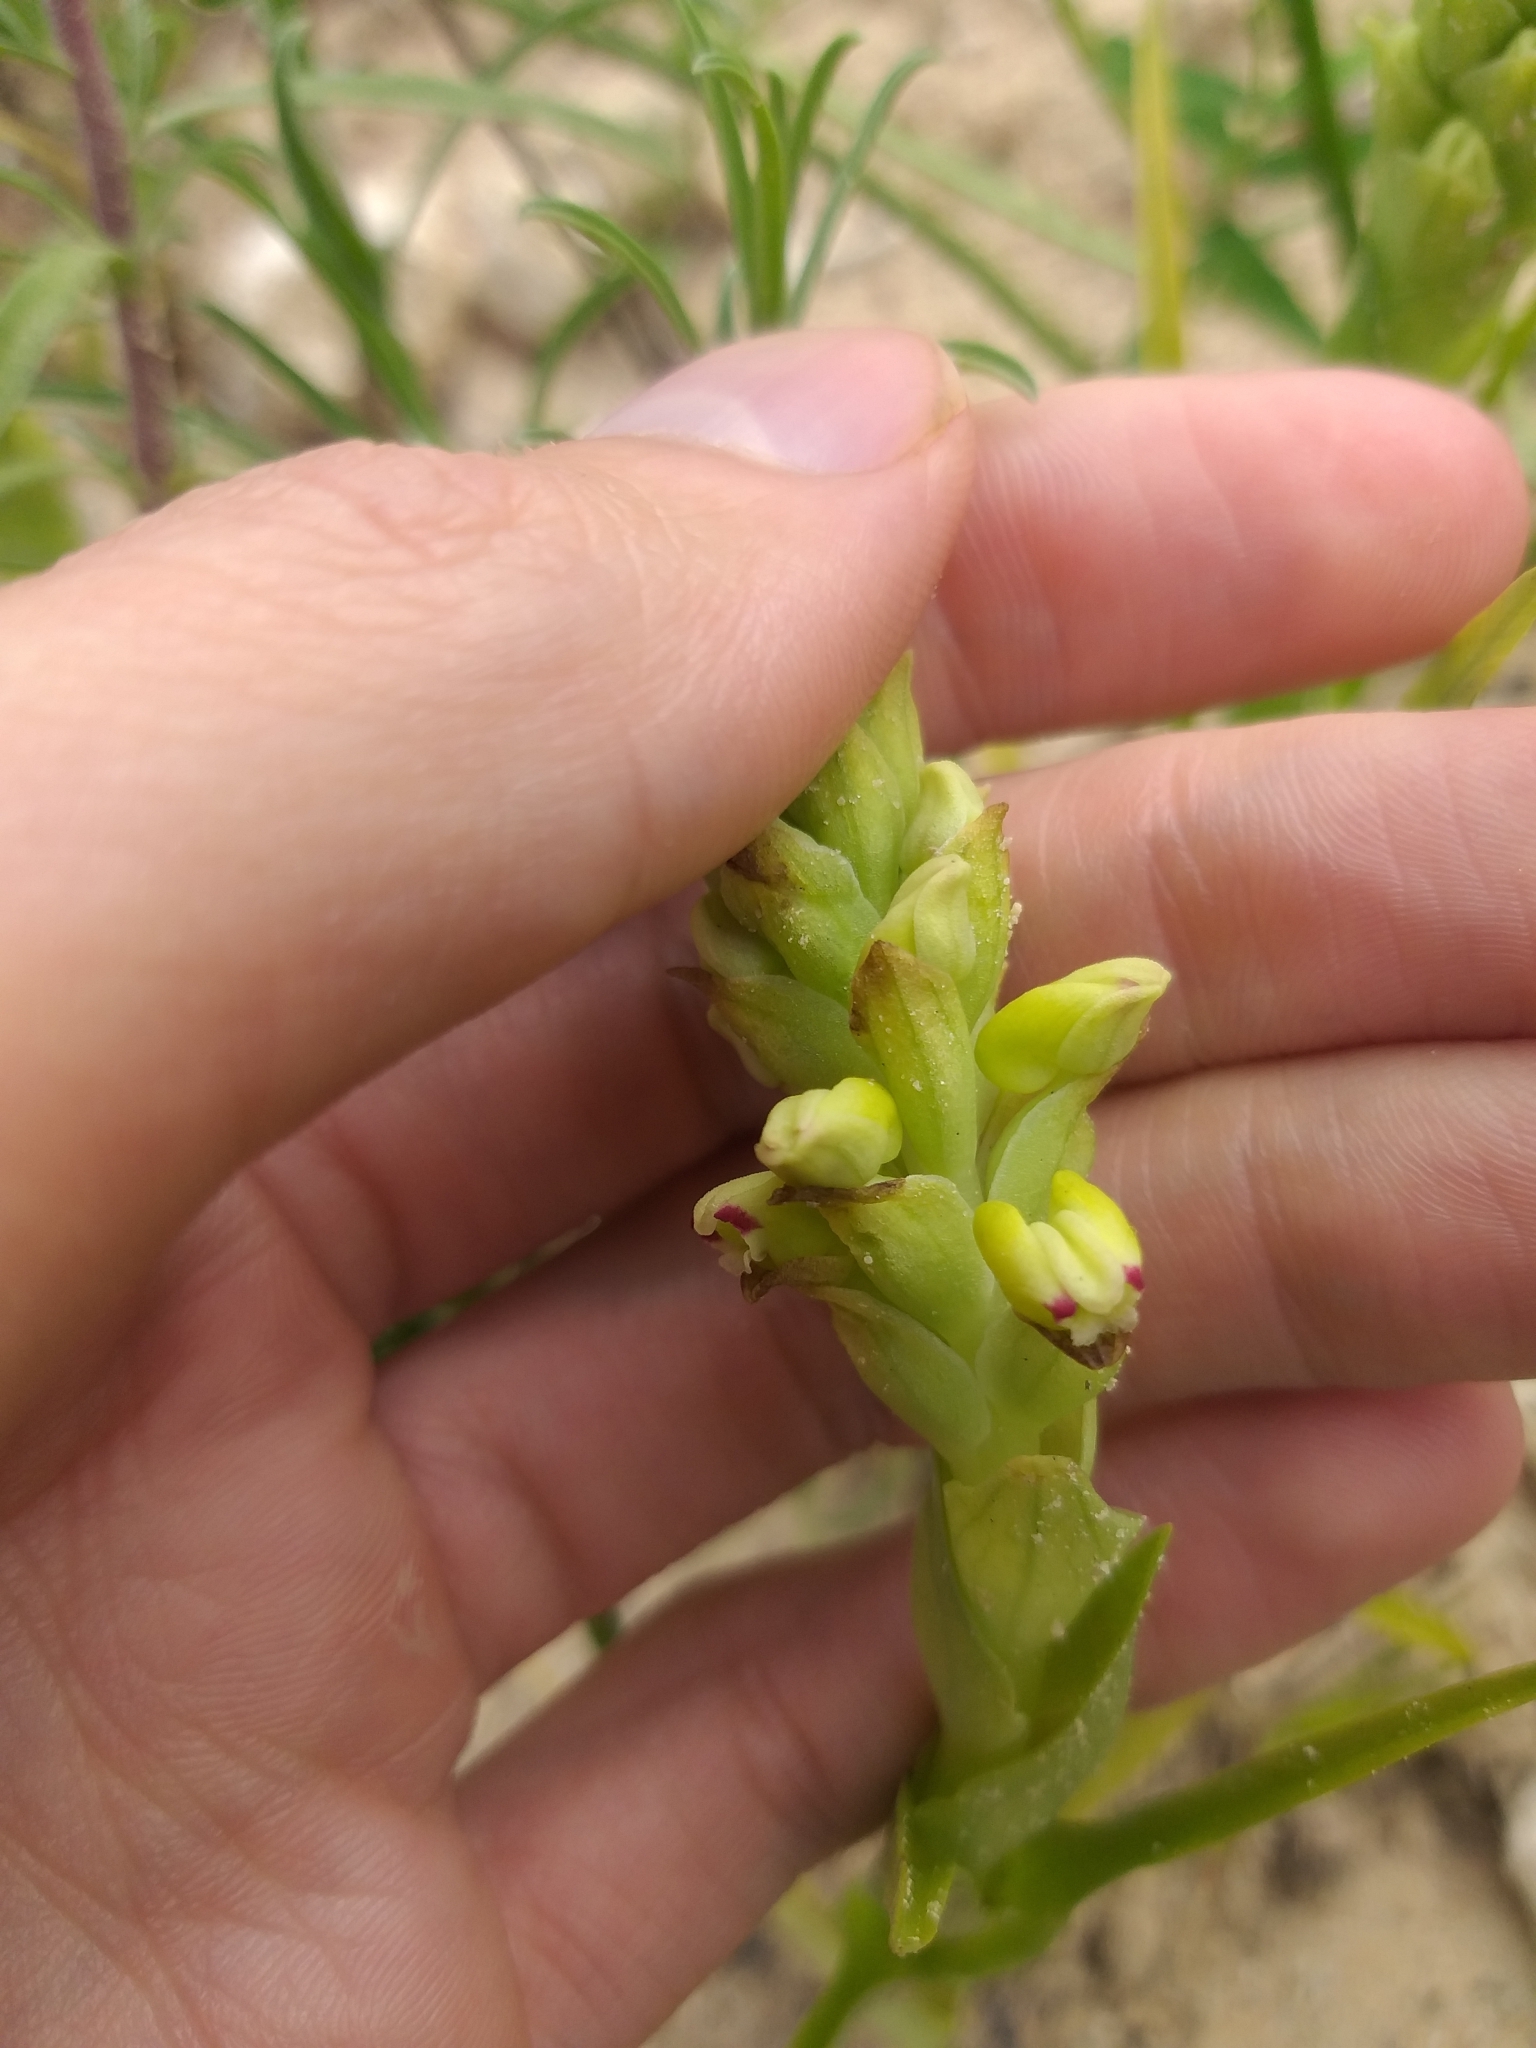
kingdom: Plantae
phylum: Tracheophyta
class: Liliopsida
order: Asparagales
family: Orchidaceae
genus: Corycium
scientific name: Corycium orobanchoides
